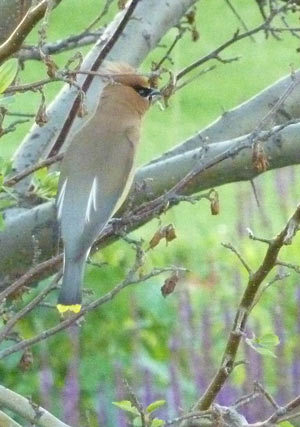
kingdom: Animalia
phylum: Chordata
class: Aves
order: Passeriformes
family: Bombycillidae
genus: Bombycilla
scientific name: Bombycilla cedrorum
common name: Cedar waxwing
